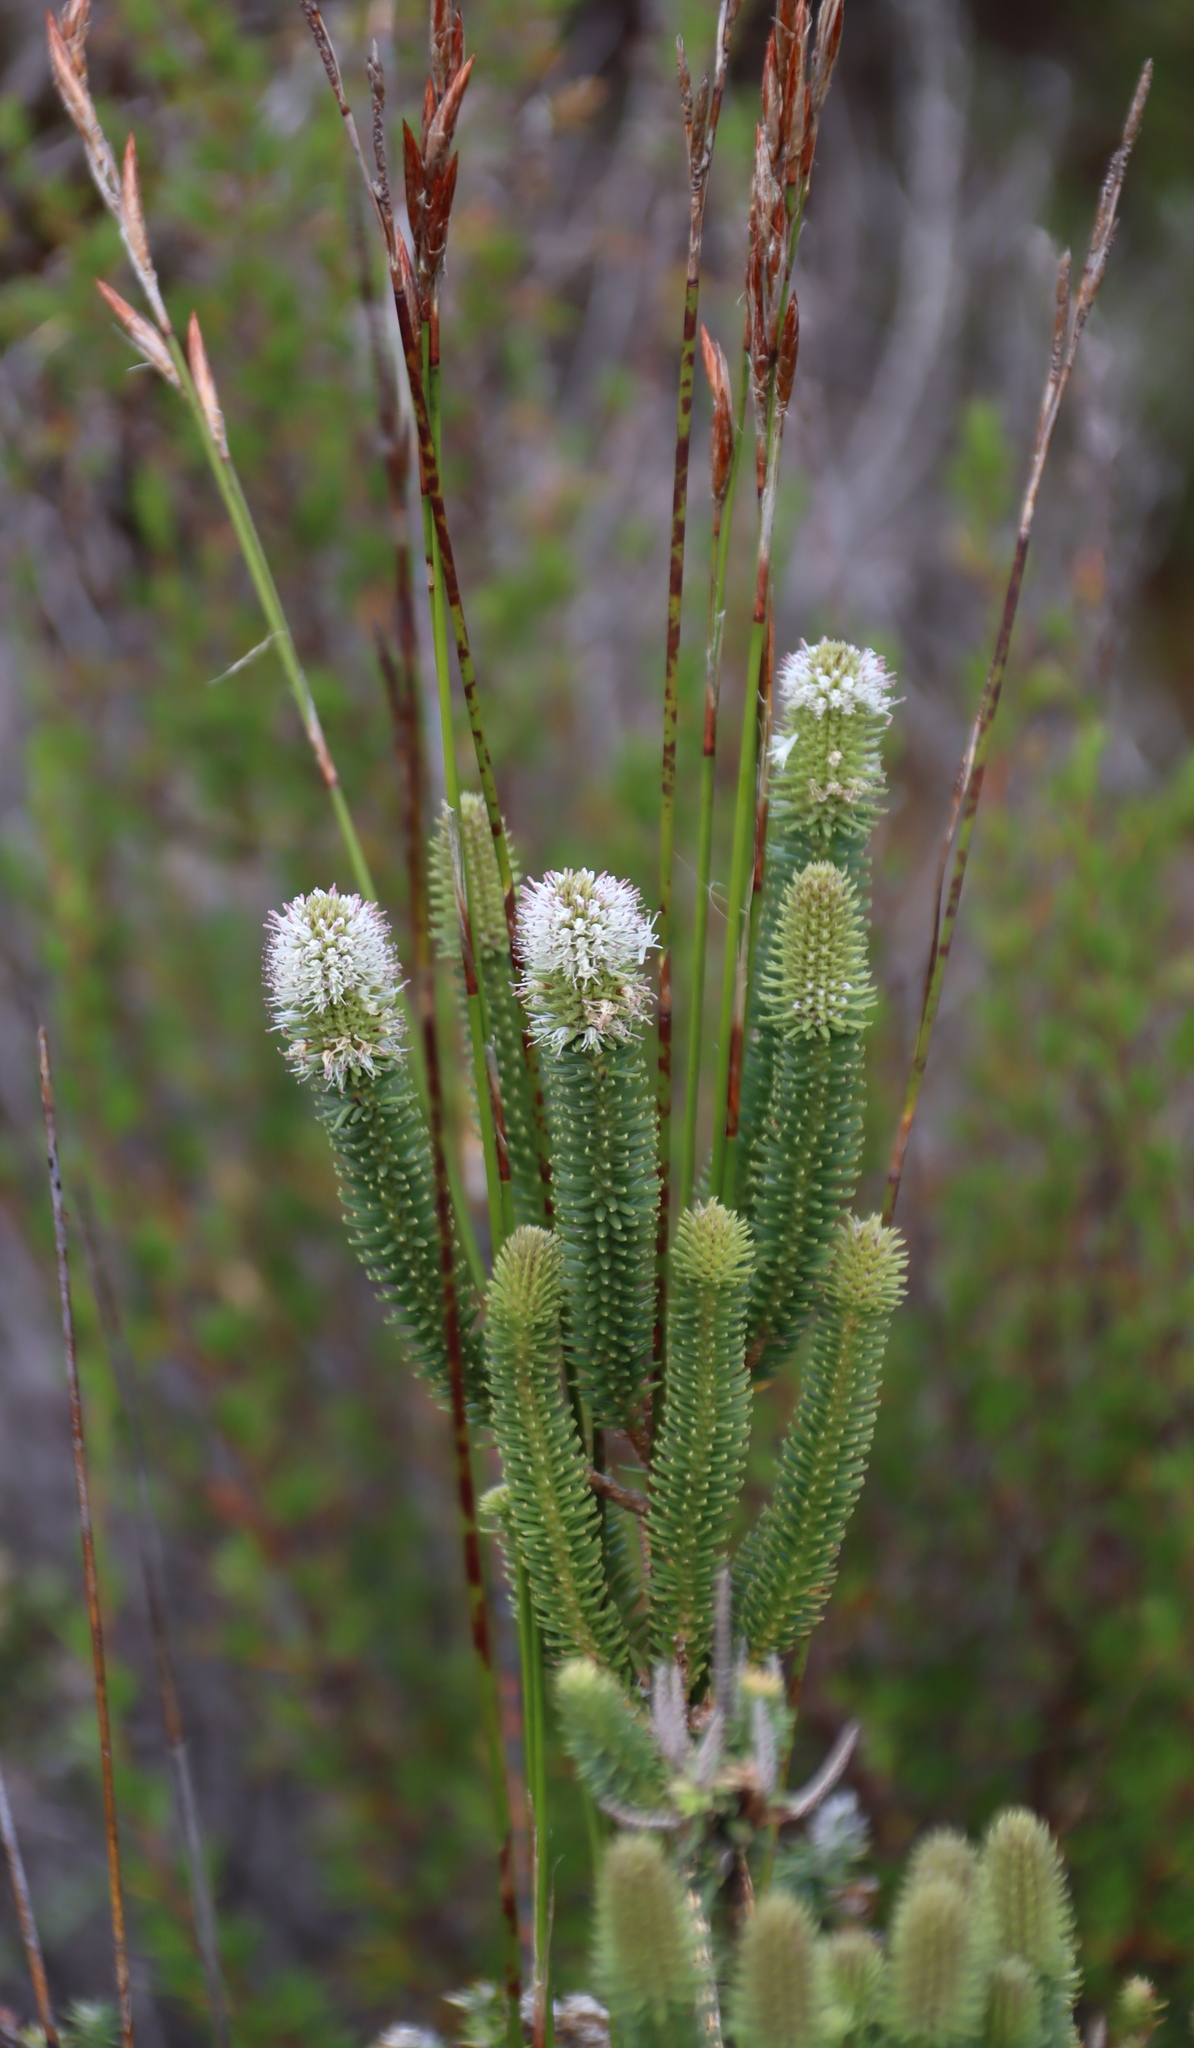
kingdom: Plantae
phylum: Tracheophyta
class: Magnoliopsida
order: Lamiales
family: Stilbaceae
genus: Stilbe
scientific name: Stilbe vestita
